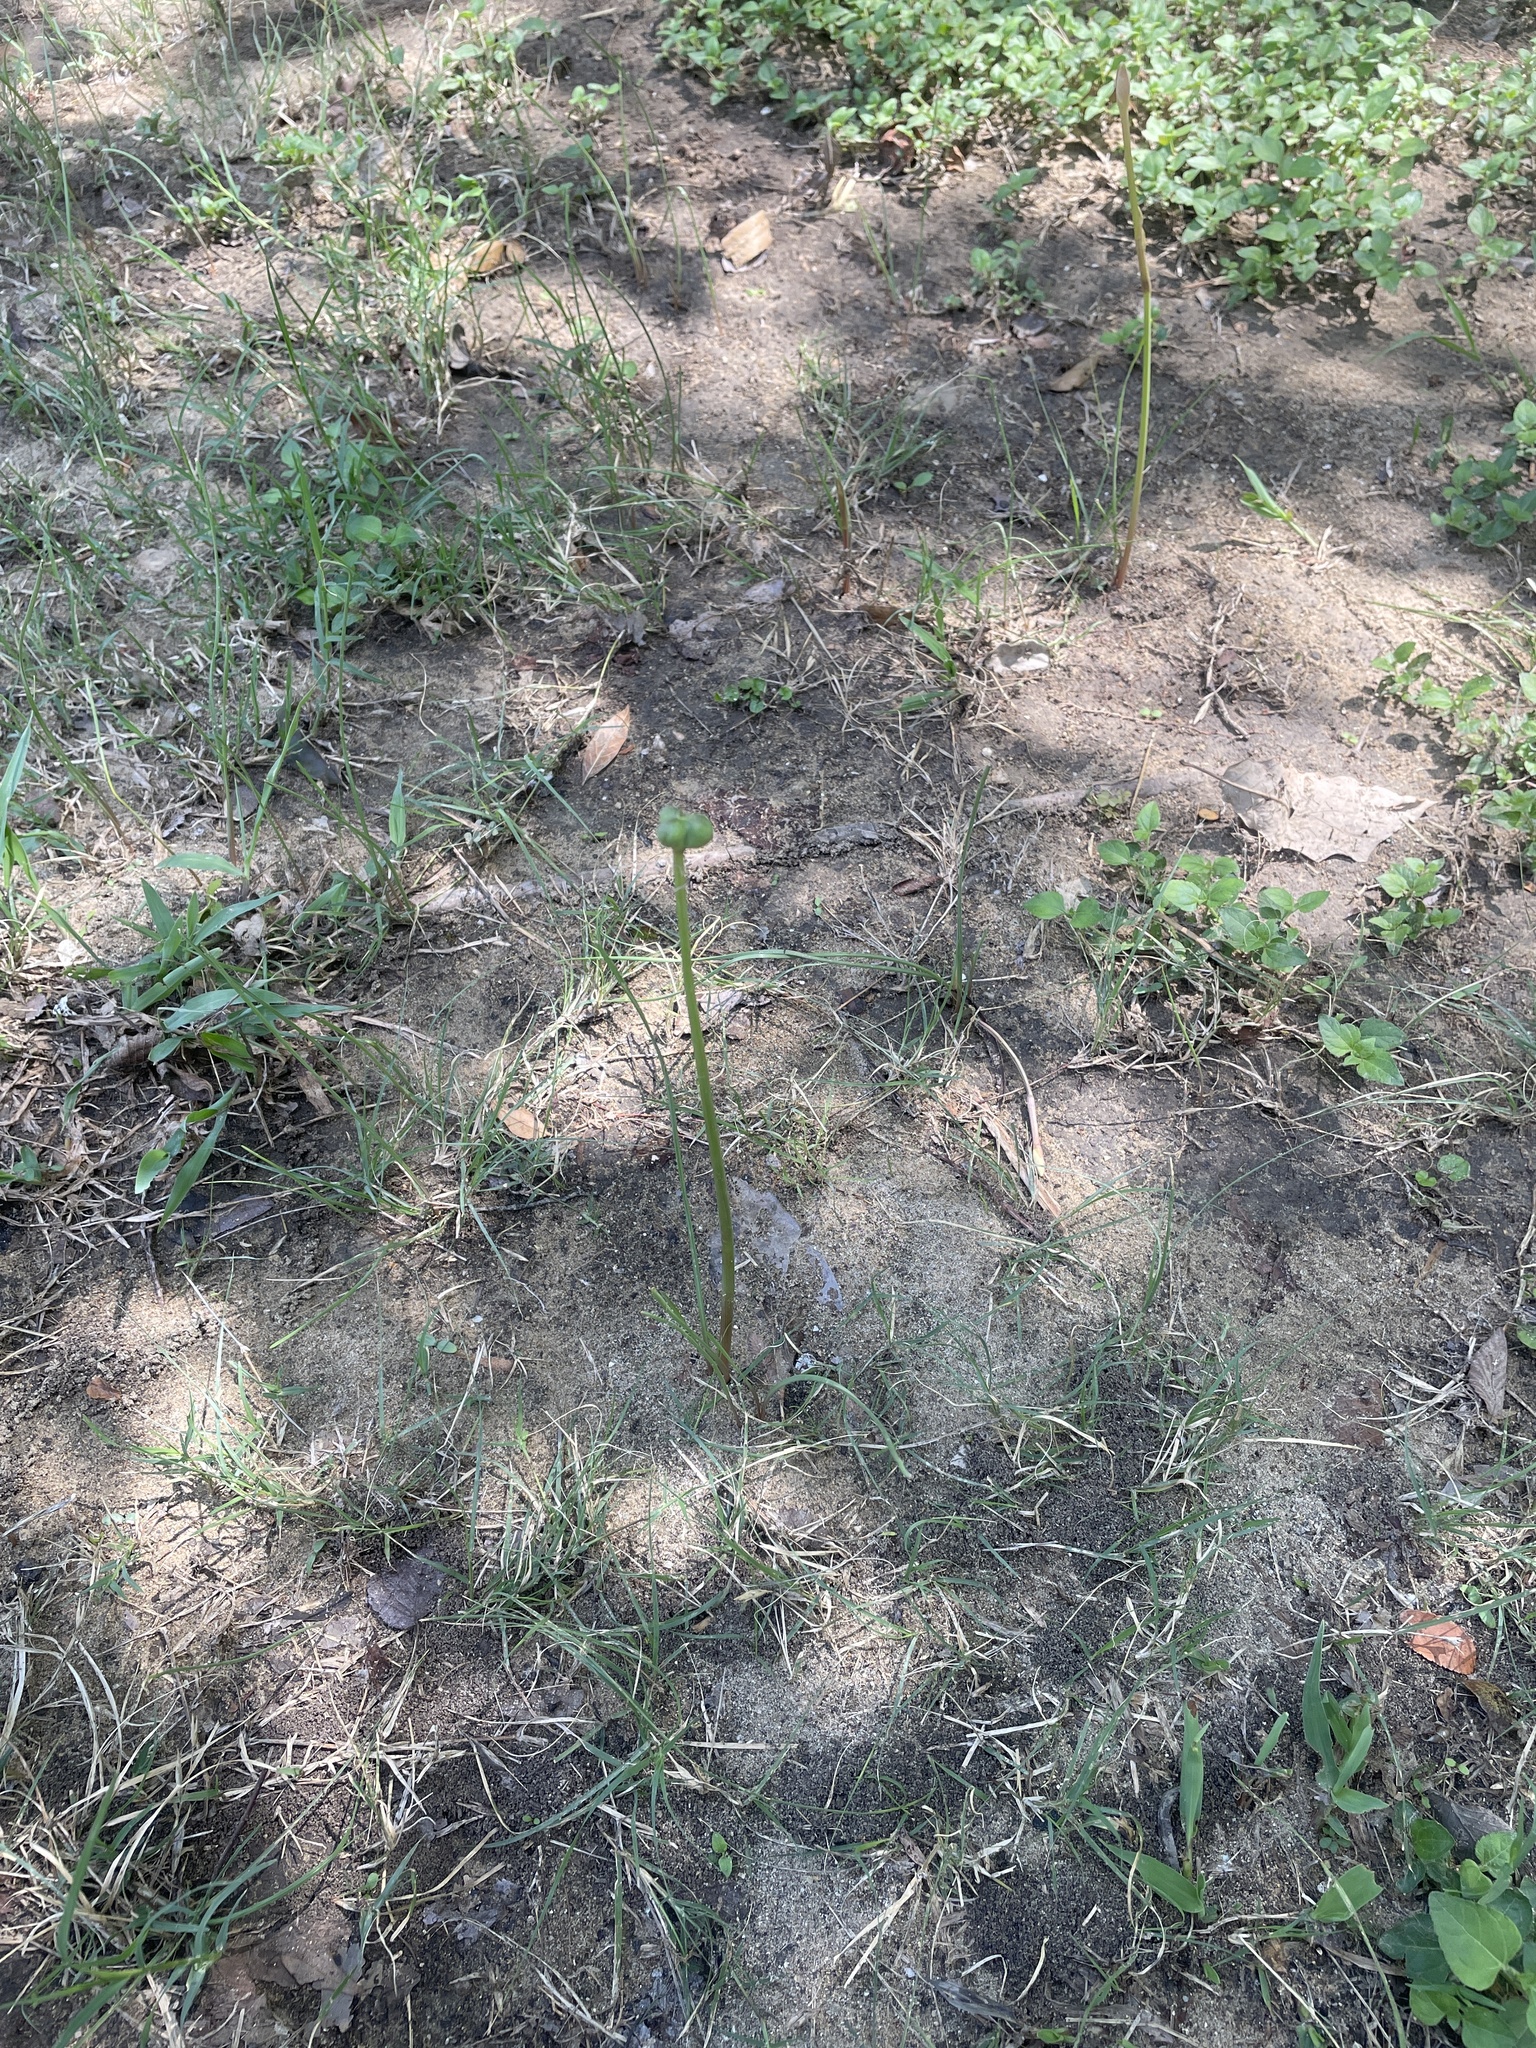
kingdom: Plantae
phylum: Tracheophyta
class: Liliopsida
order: Asparagales
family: Amaryllidaceae
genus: Zephyranthes
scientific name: Zephyranthes chlorosolen
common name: Evening rain-lily
